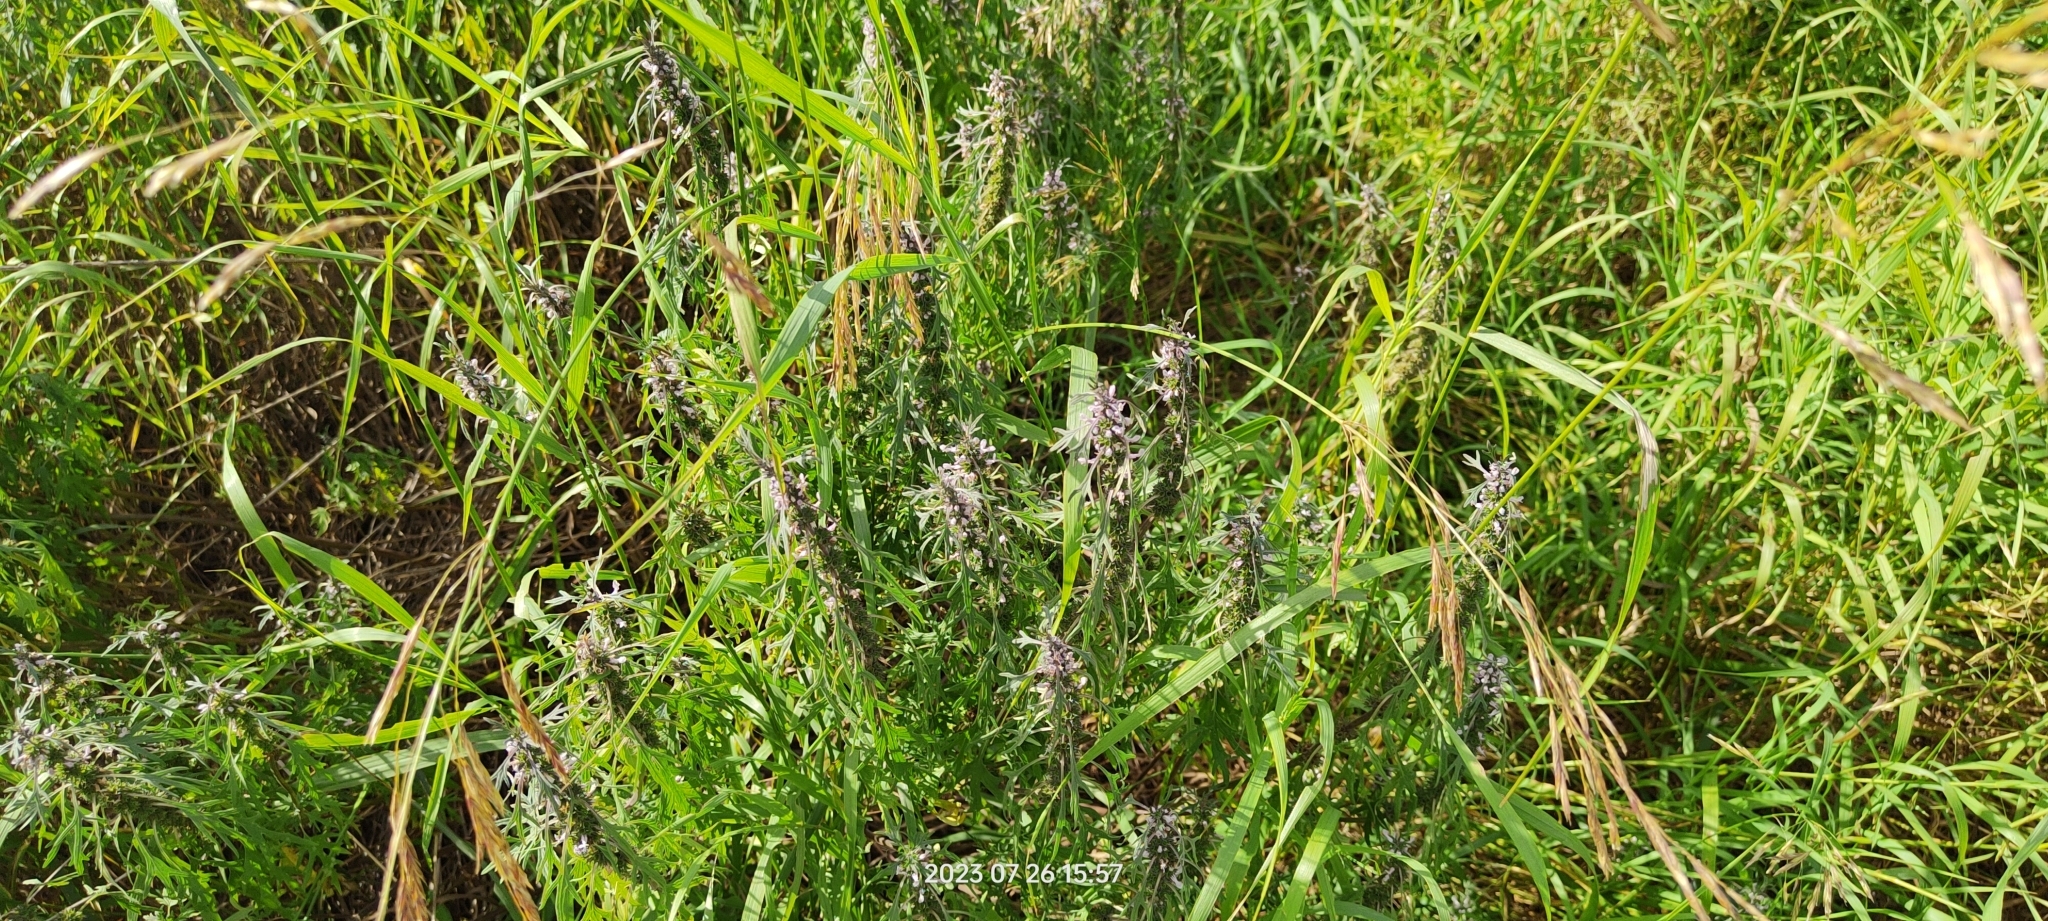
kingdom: Plantae
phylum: Tracheophyta
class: Magnoliopsida
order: Lamiales
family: Lamiaceae
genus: Leonurus
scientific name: Leonurus deminutus
